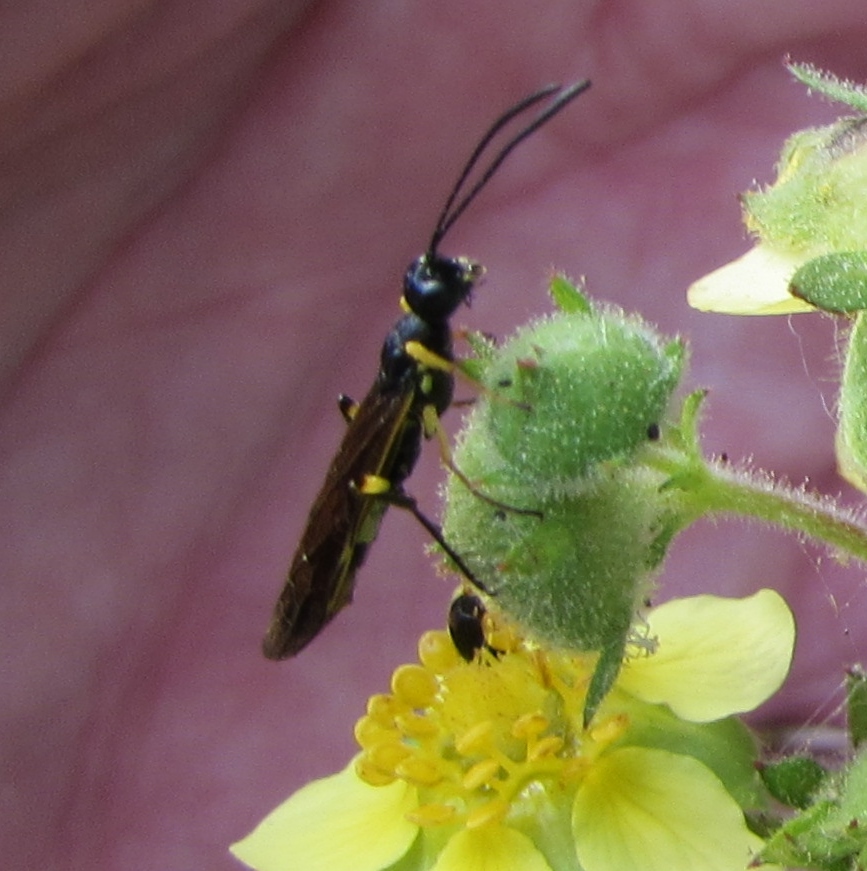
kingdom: Animalia
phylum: Arthropoda
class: Insecta
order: Hymenoptera
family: Cephidae
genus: Calameuta
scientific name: Calameuta
